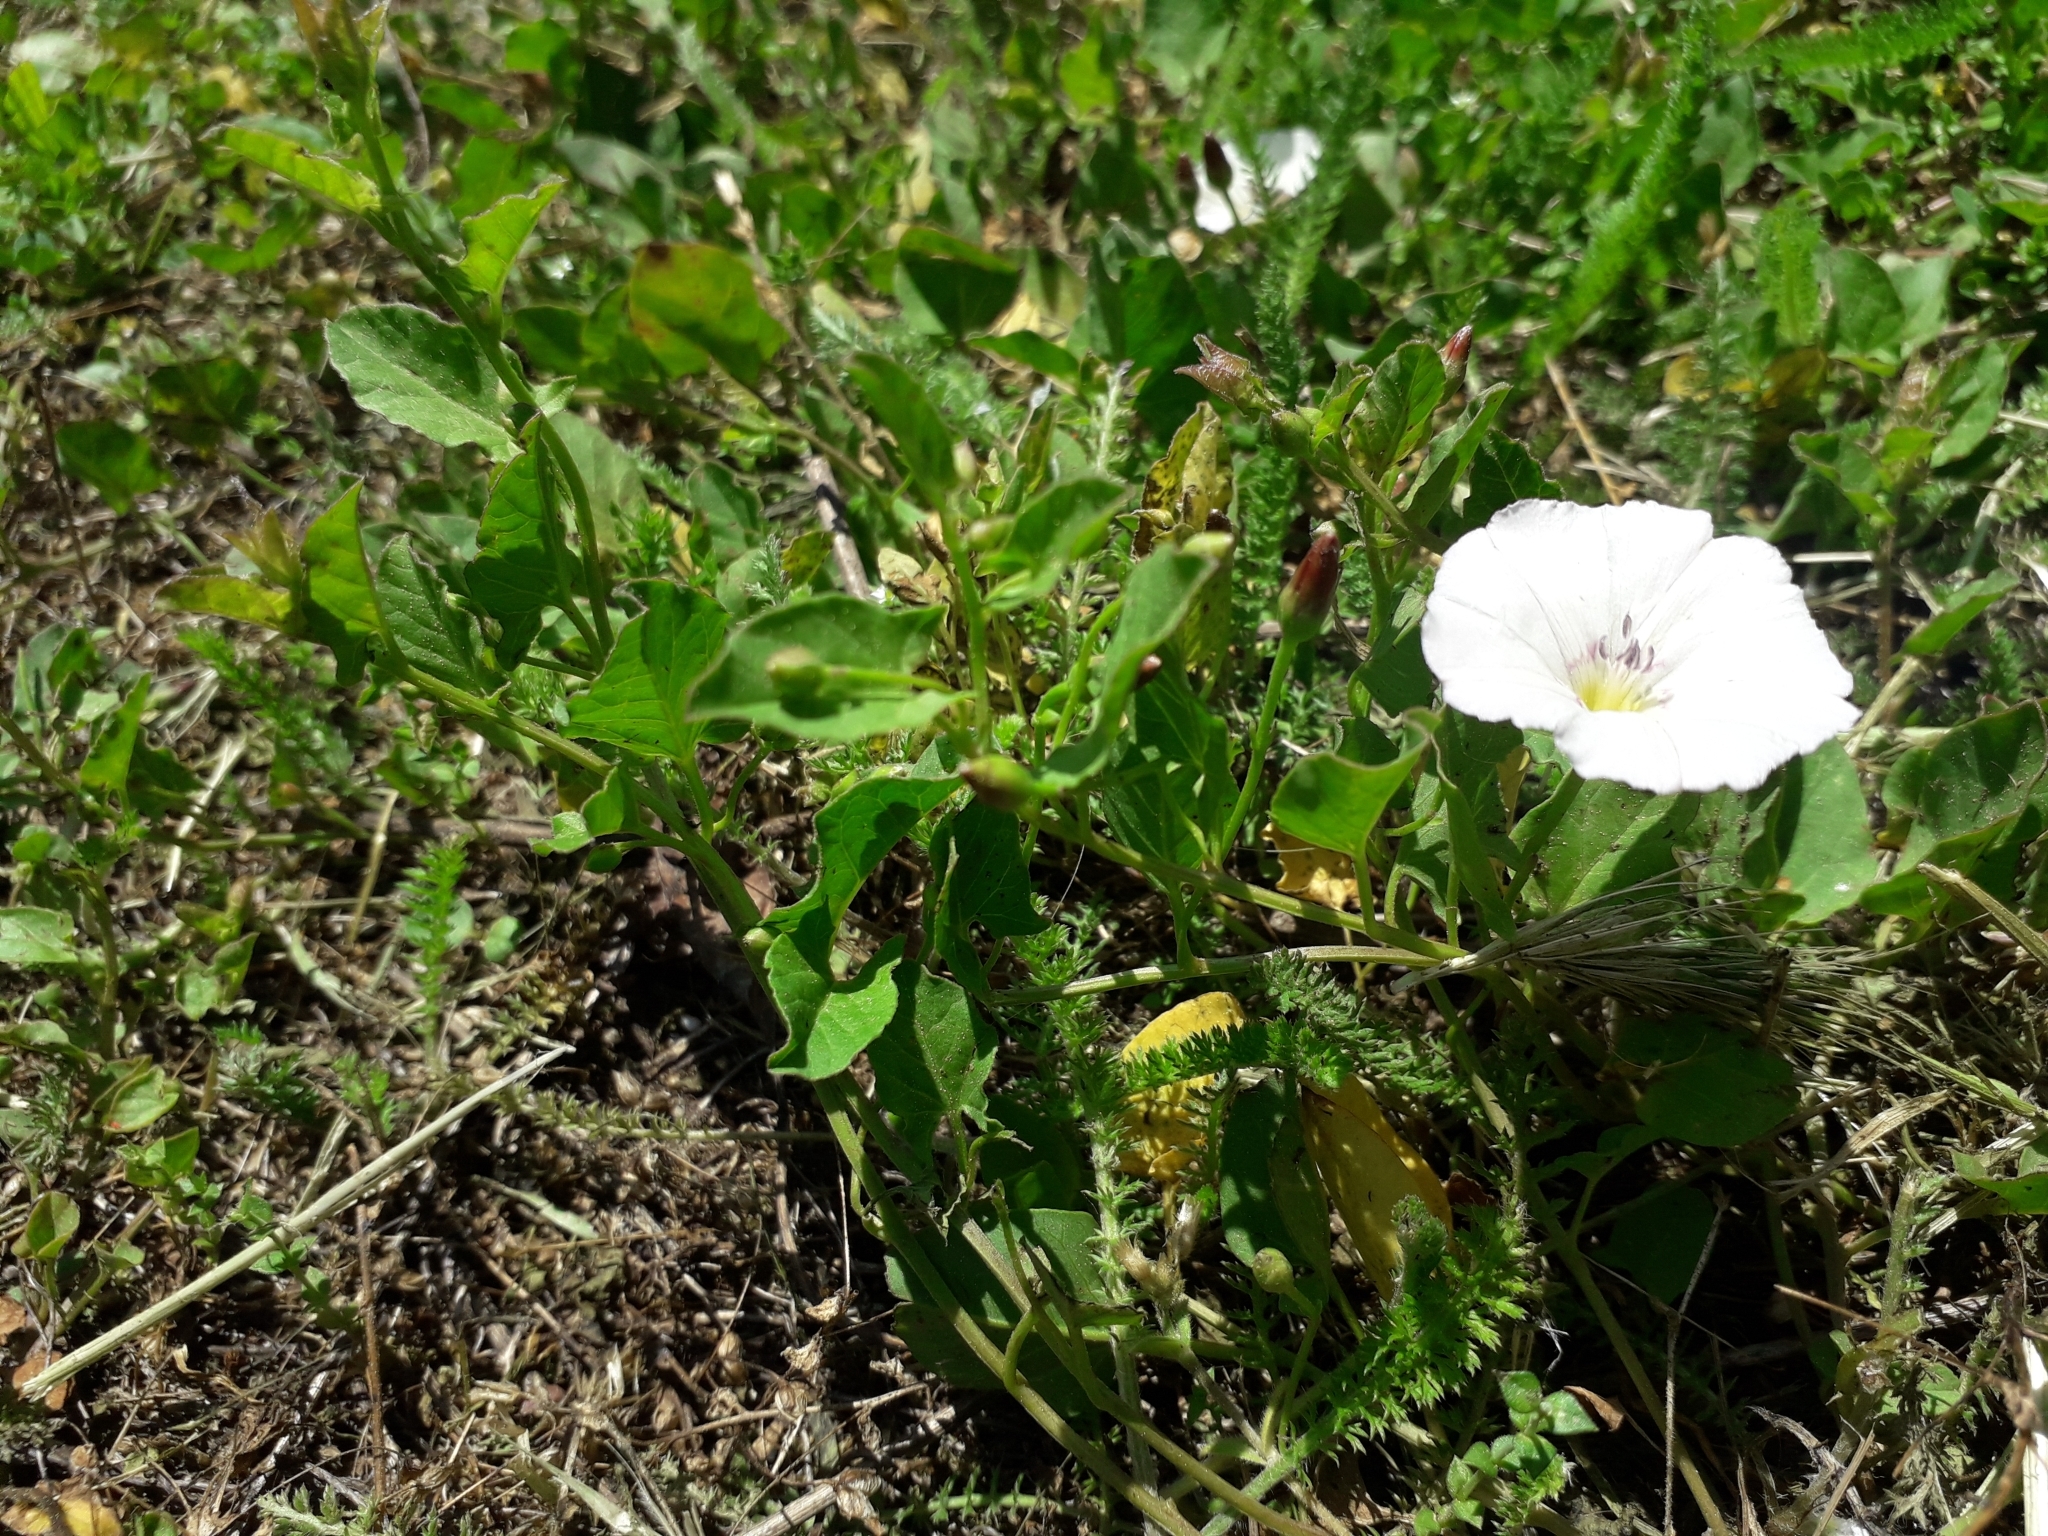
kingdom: Plantae
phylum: Tracheophyta
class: Magnoliopsida
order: Solanales
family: Convolvulaceae
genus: Convolvulus
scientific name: Convolvulus arvensis
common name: Field bindweed
